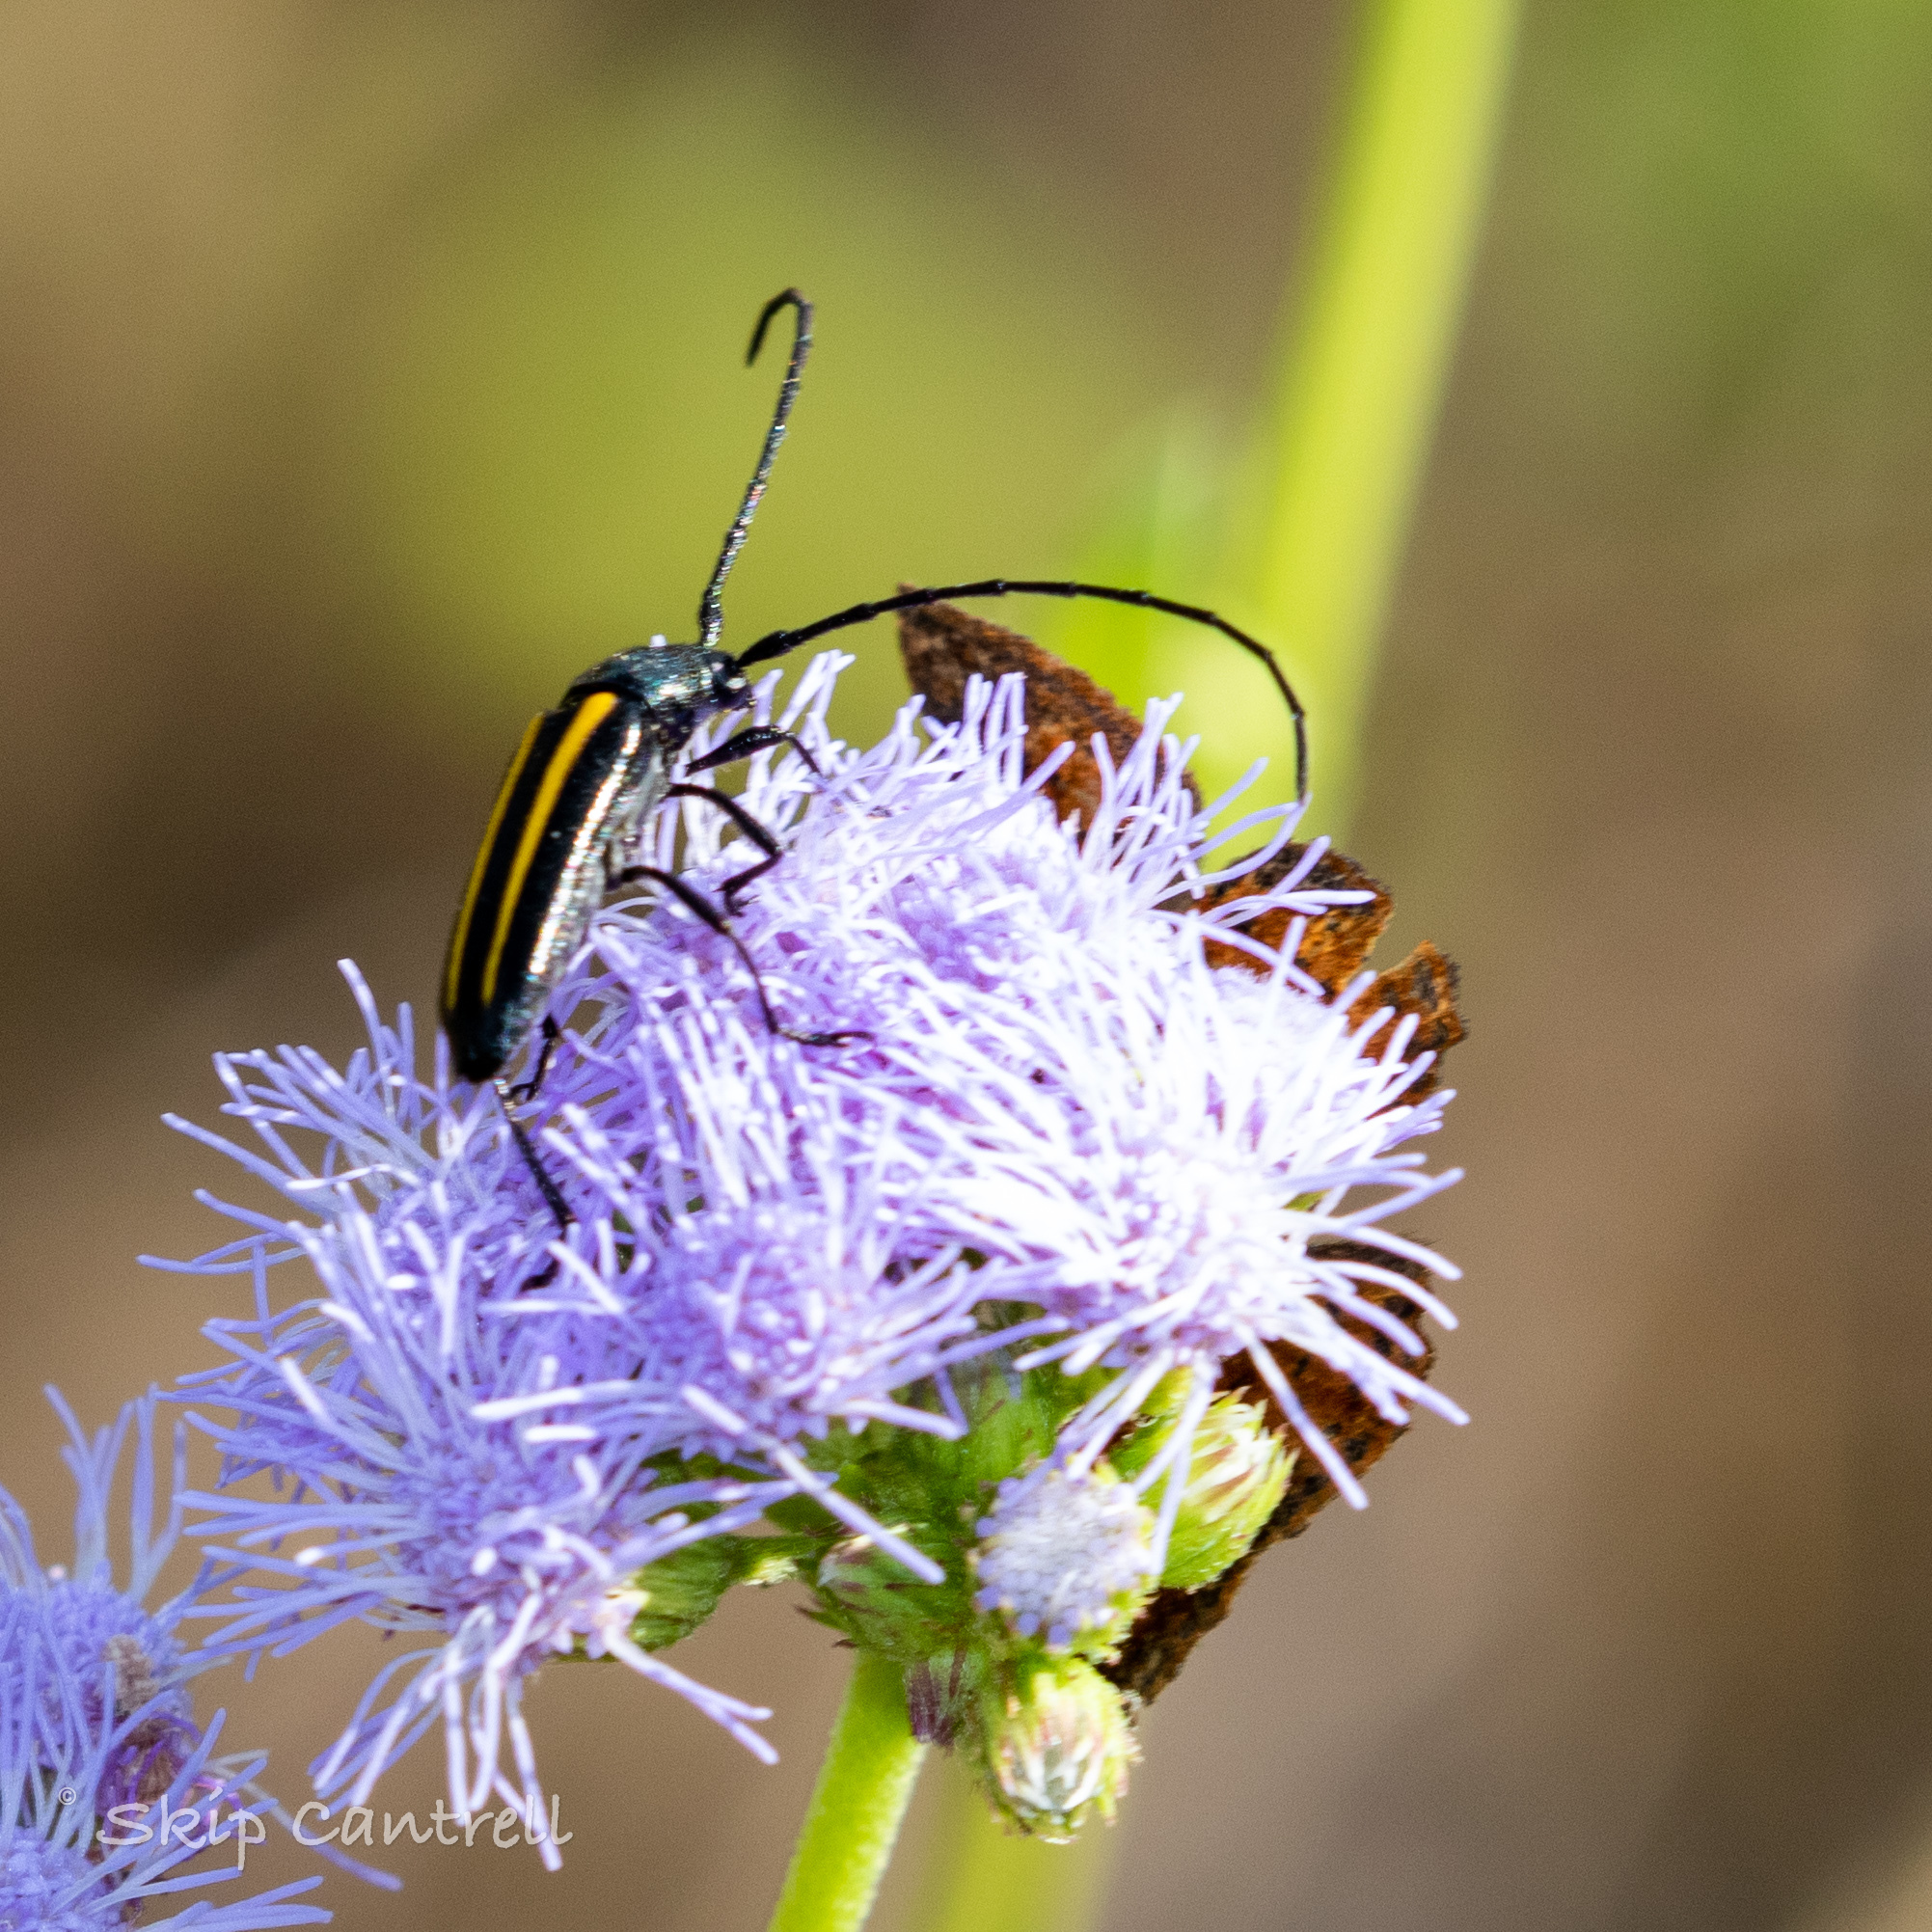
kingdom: Animalia
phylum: Arthropoda
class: Insecta
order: Coleoptera
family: Cerambycidae
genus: Lophalia
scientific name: Lophalia cyanicollis
